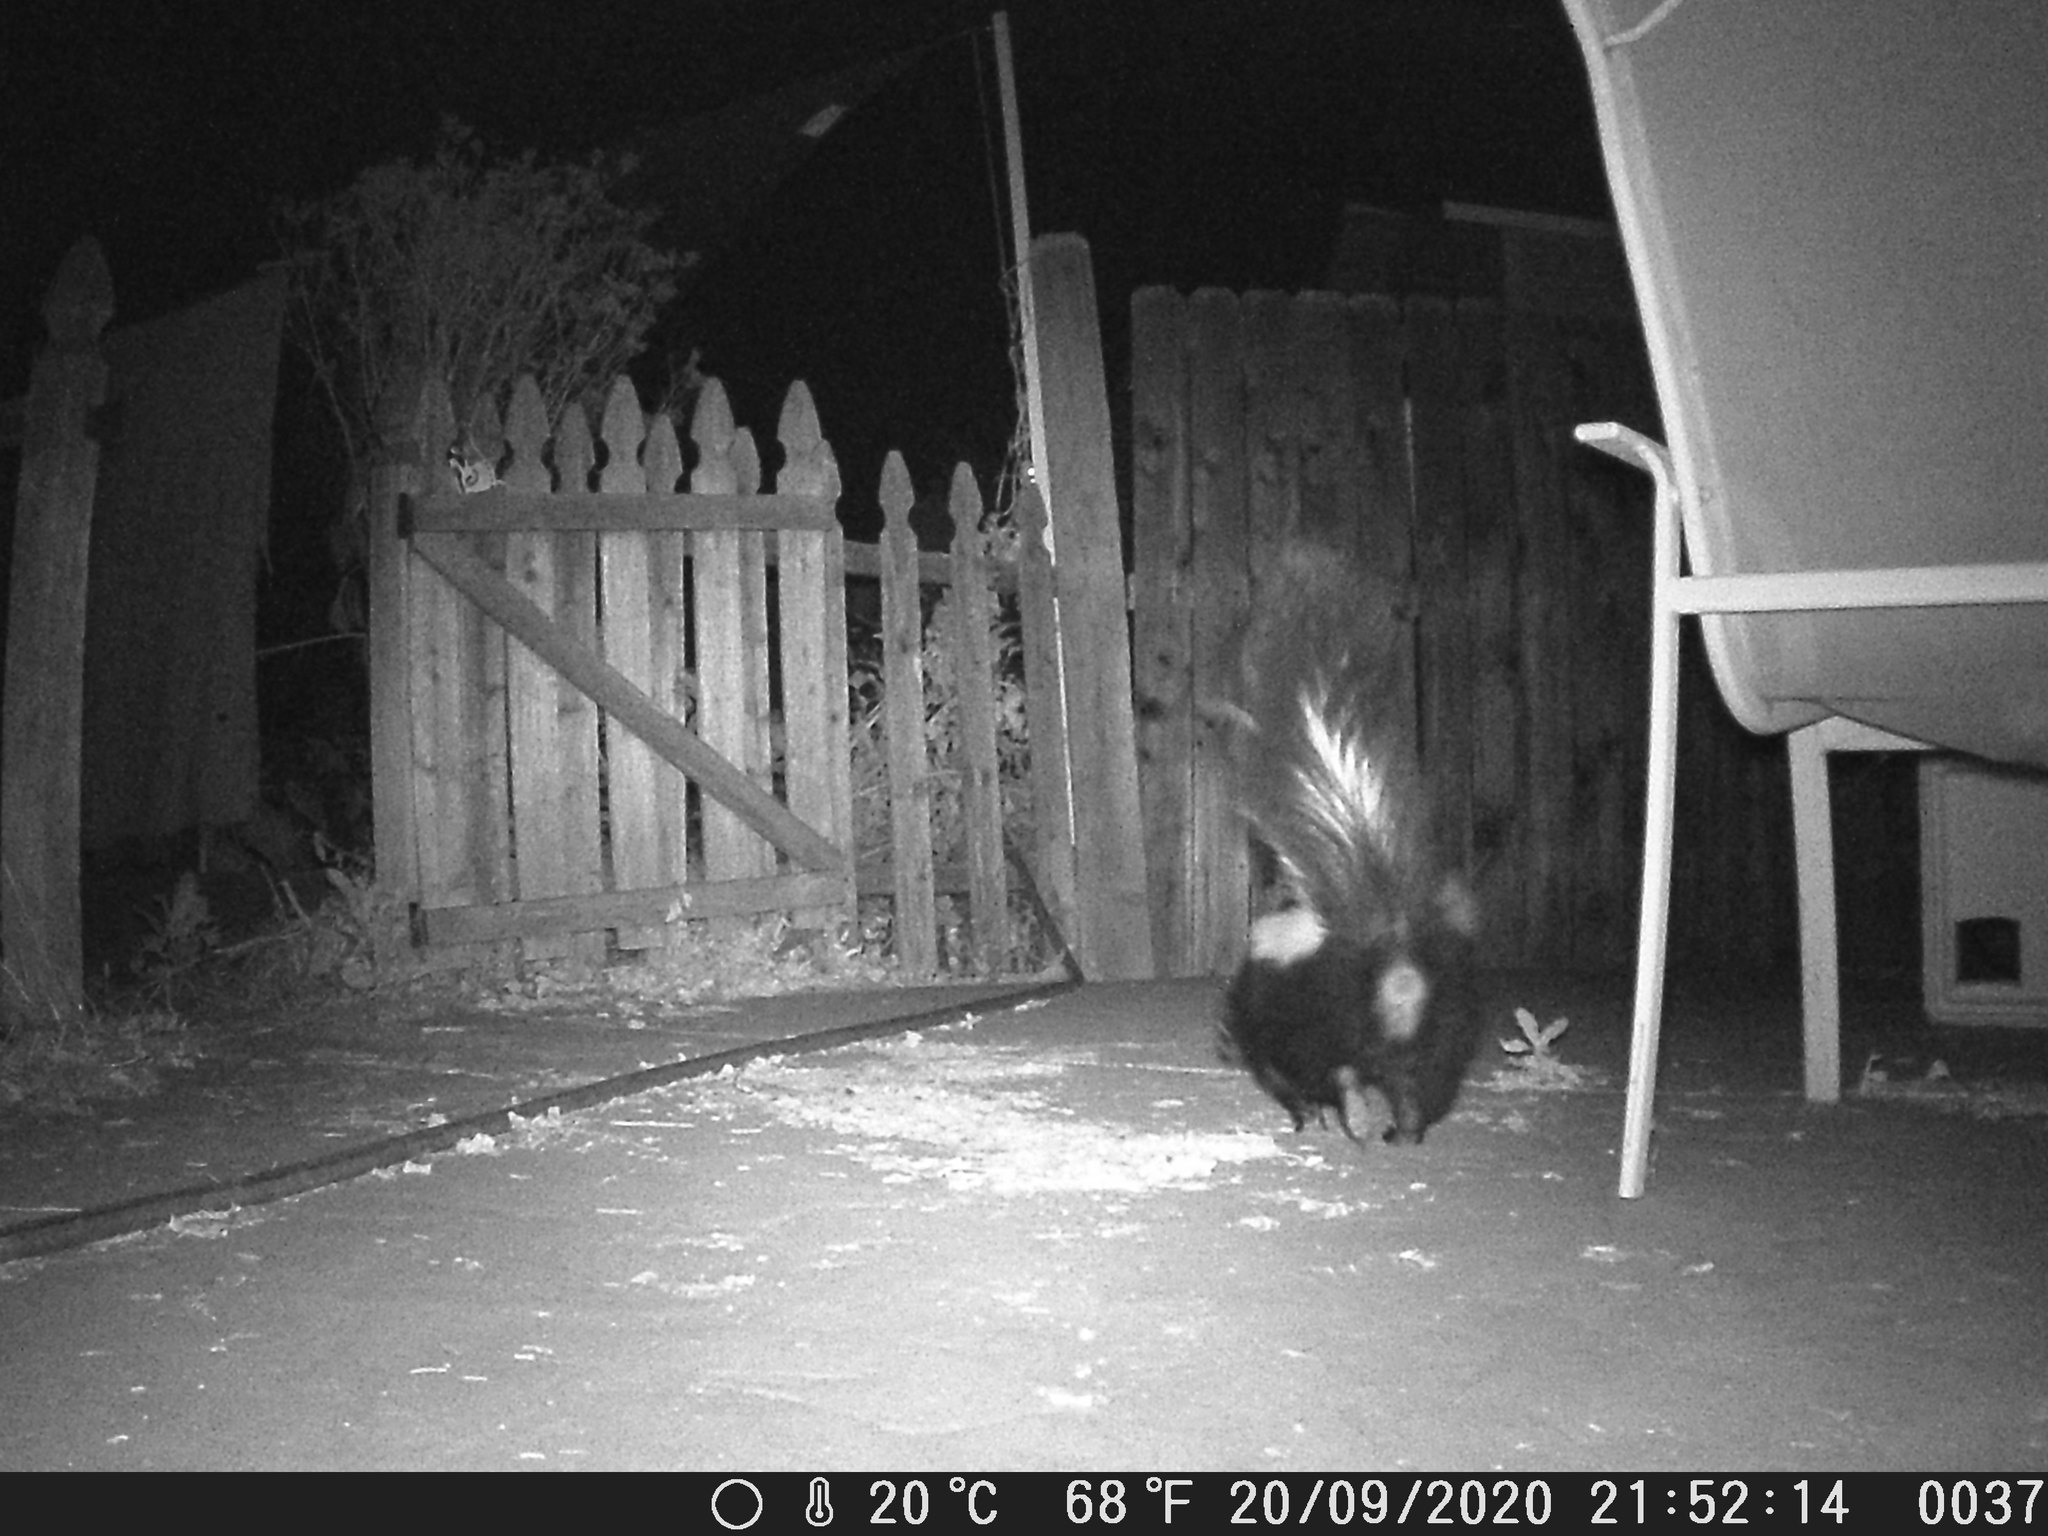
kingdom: Animalia
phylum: Chordata
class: Mammalia
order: Carnivora
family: Mephitidae
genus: Mephitis
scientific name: Mephitis mephitis
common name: Striped skunk
